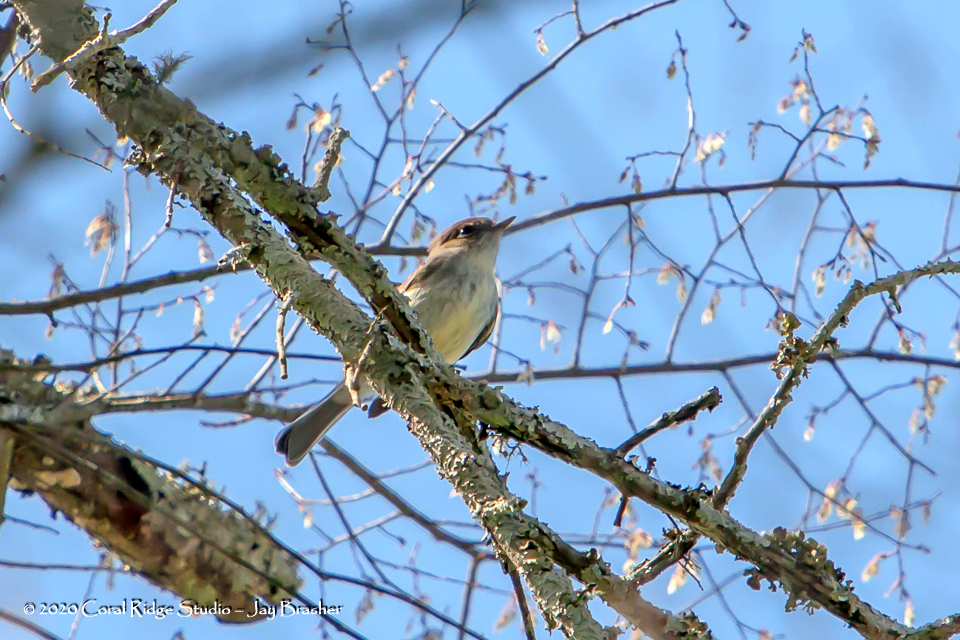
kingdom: Animalia
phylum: Chordata
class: Aves
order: Passeriformes
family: Tyrannidae
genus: Sayornis
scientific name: Sayornis phoebe
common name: Eastern phoebe
